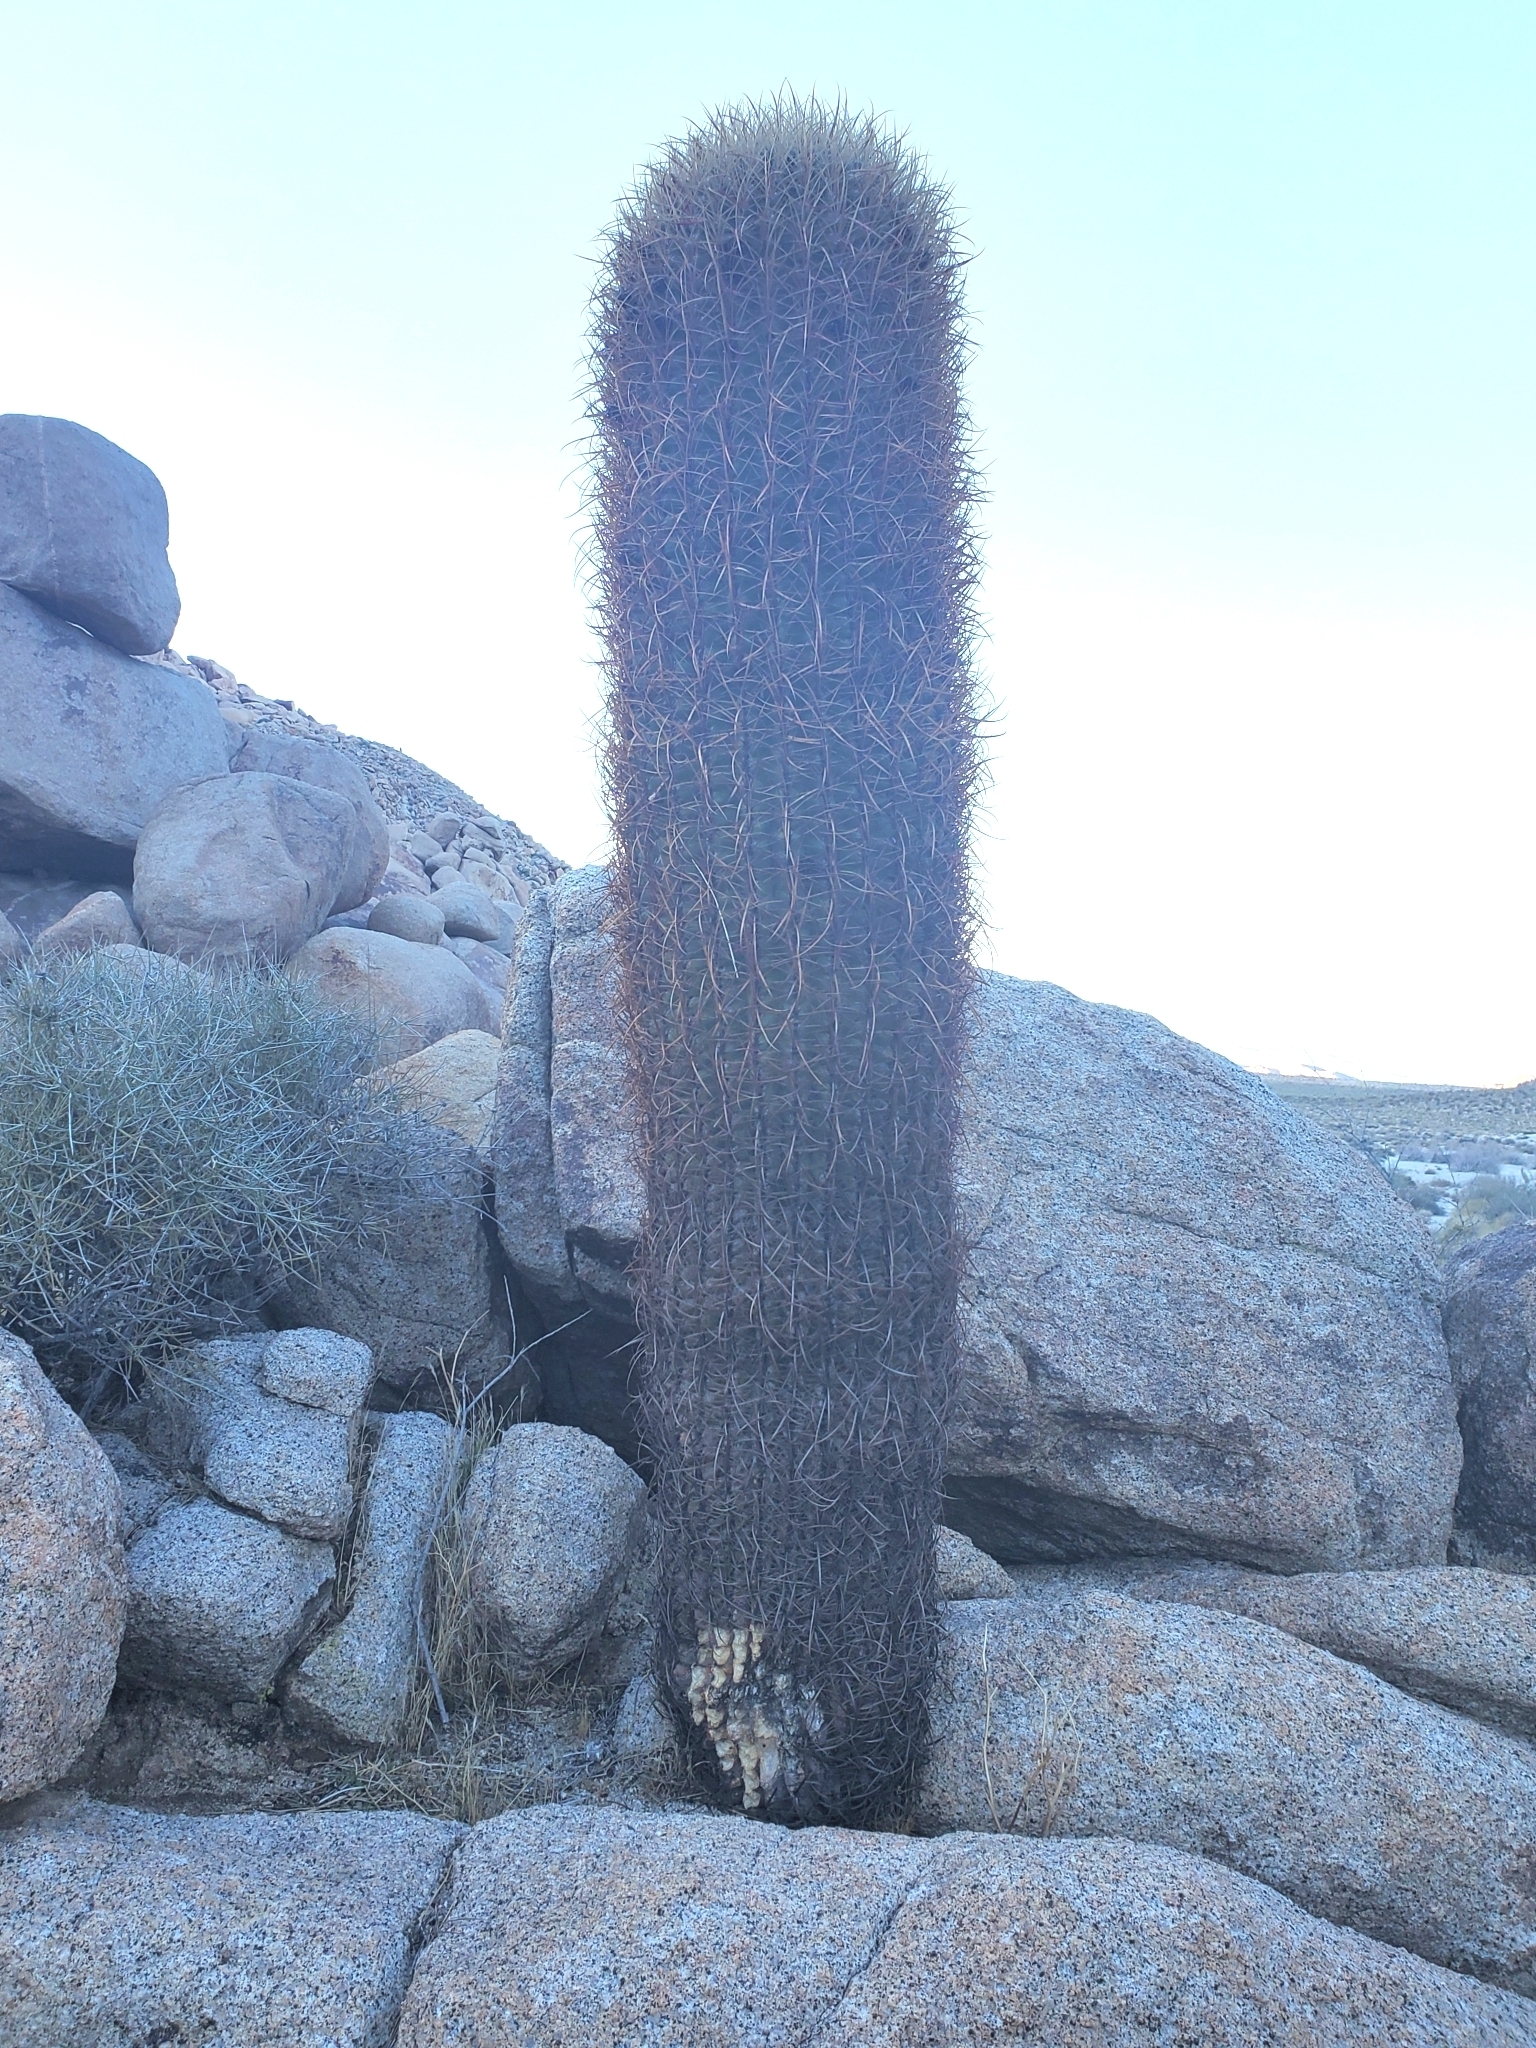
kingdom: Plantae
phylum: Tracheophyta
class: Magnoliopsida
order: Caryophyllales
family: Cactaceae
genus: Ferocactus
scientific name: Ferocactus cylindraceus
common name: California barrel cactus
